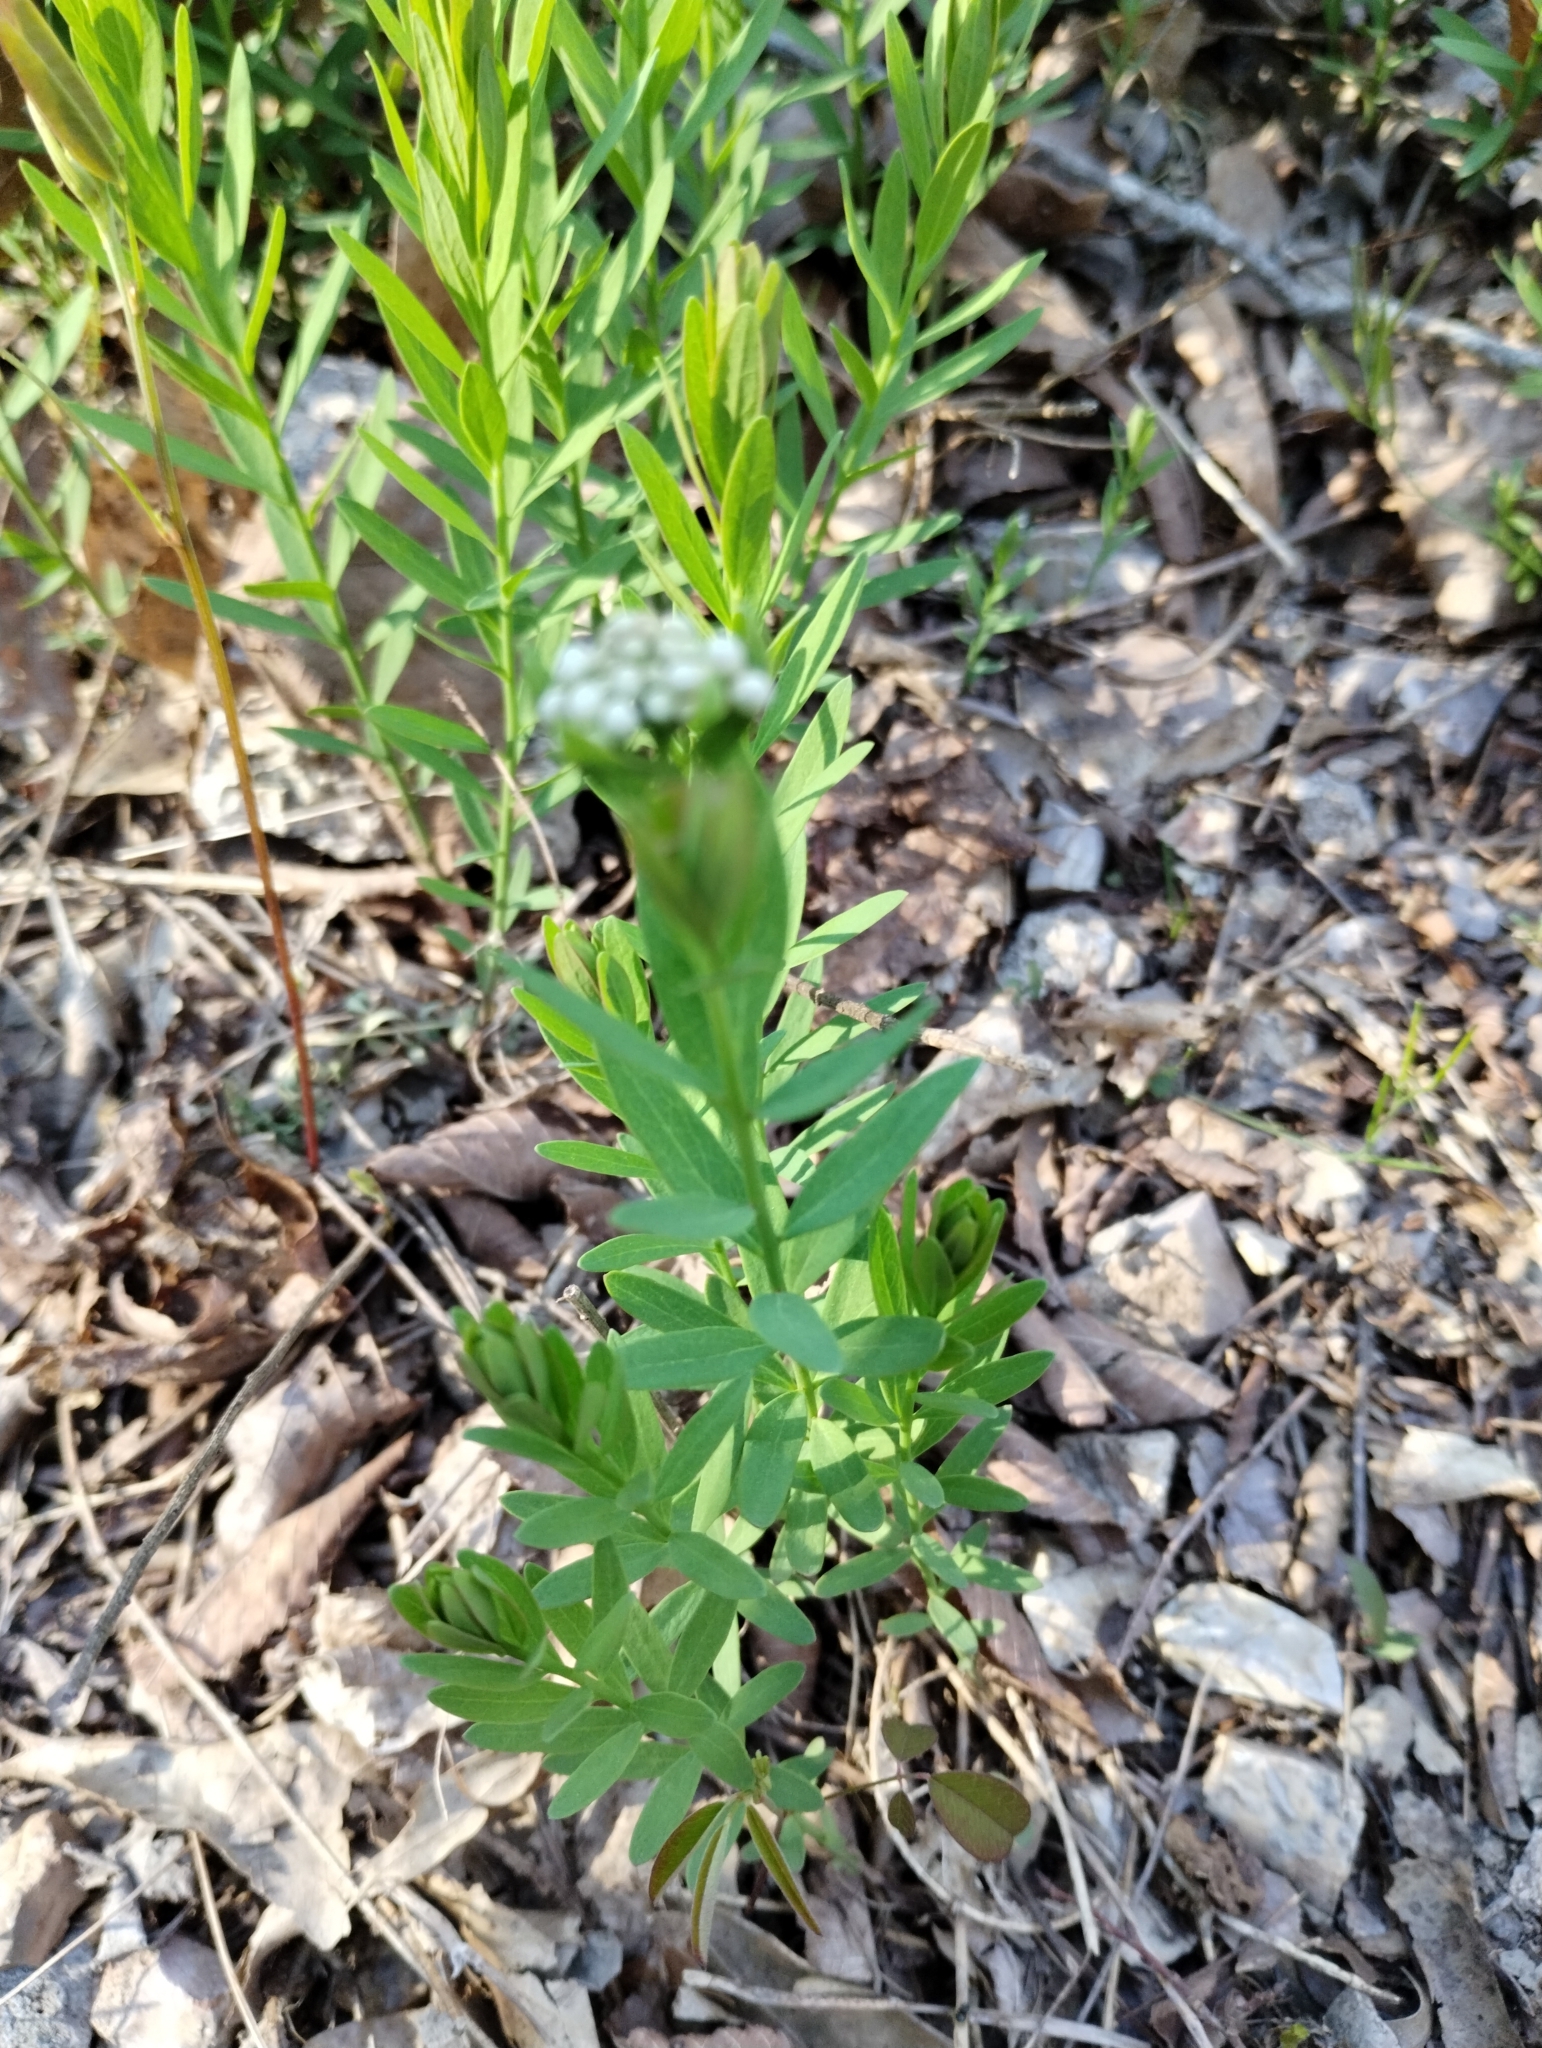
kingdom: Plantae
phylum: Tracheophyta
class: Magnoliopsida
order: Santalales
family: Comandraceae
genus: Comandra
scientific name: Comandra umbellata
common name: Bastard toadflax
